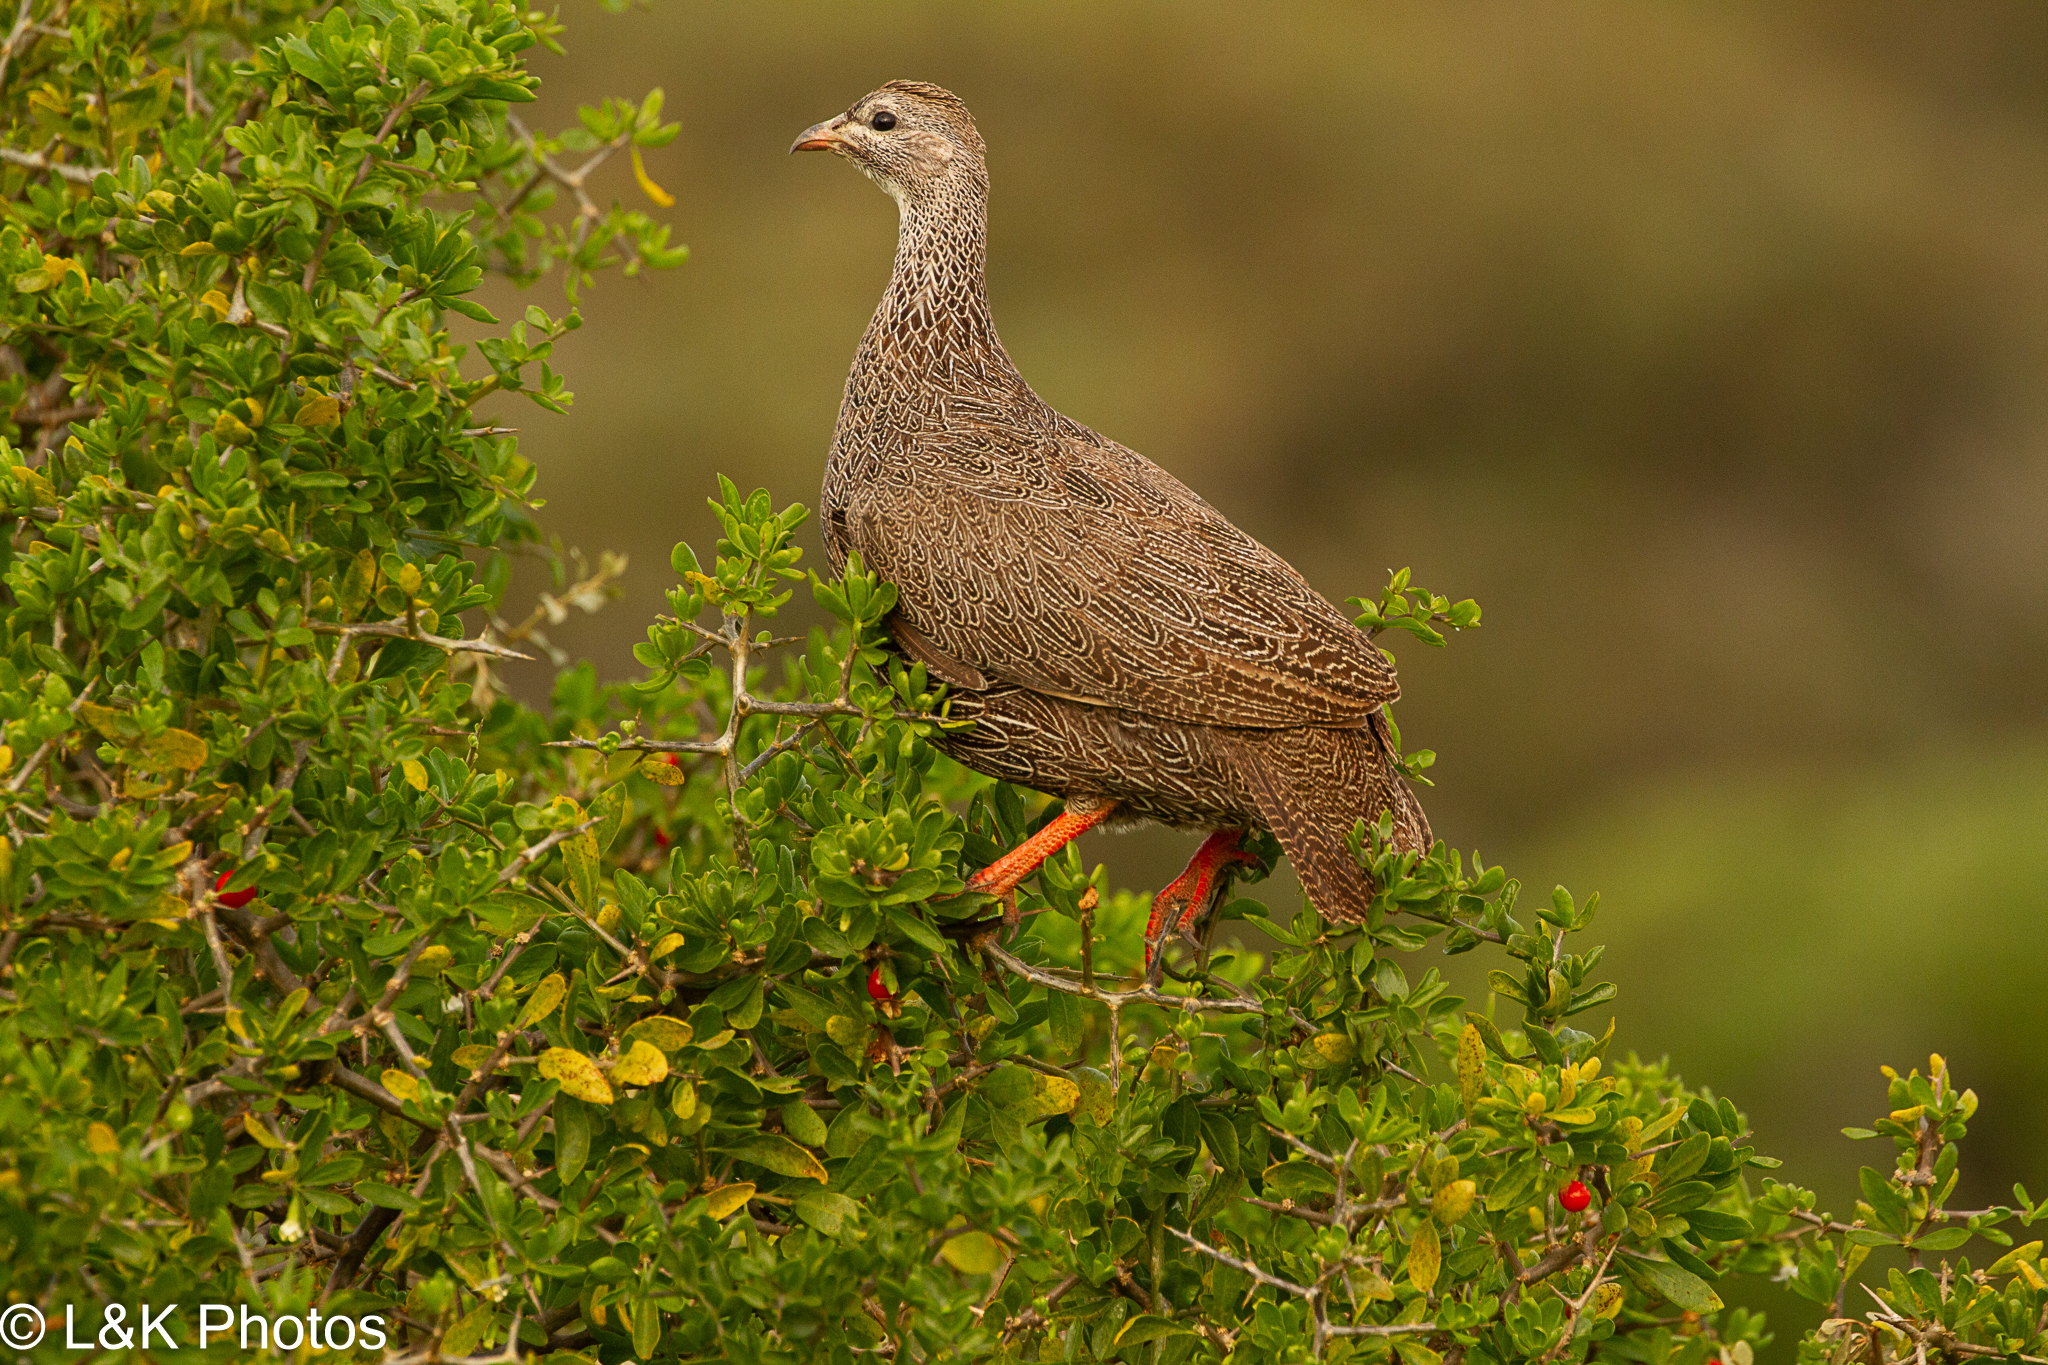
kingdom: Animalia
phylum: Chordata
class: Aves
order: Galliformes
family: Phasianidae
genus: Pternistis
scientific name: Pternistis capensis
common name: Cape spurfowl
